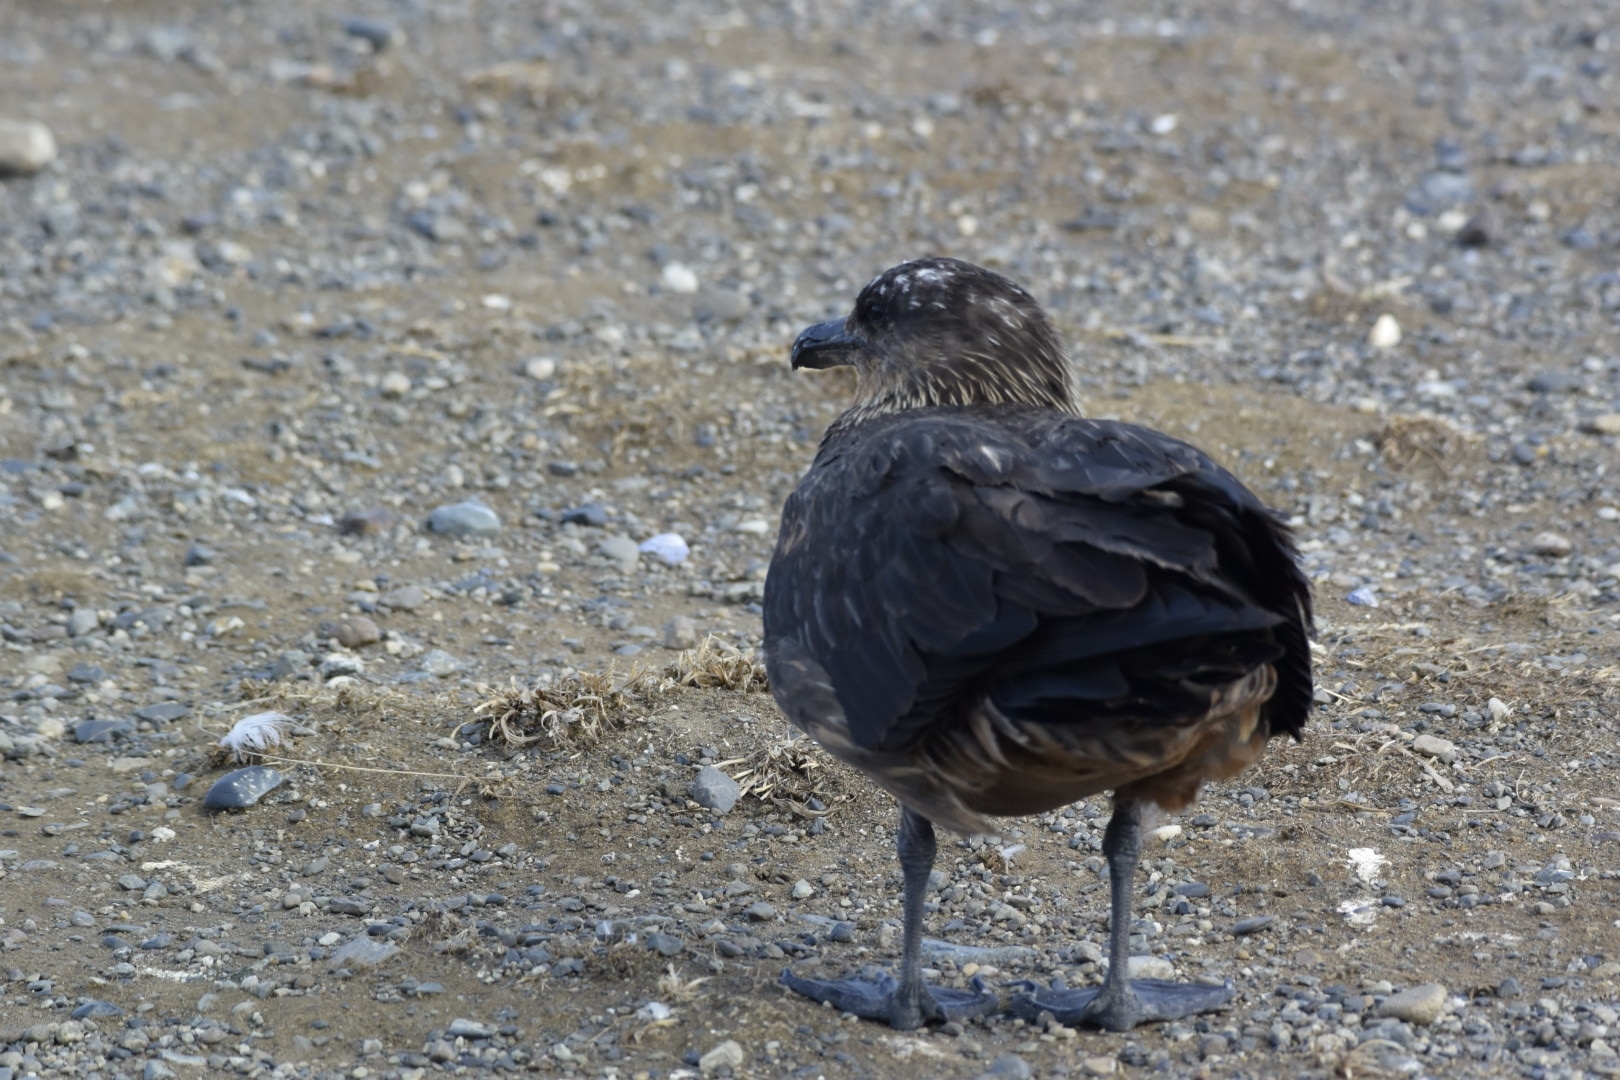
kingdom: Animalia
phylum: Chordata
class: Aves
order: Charadriiformes
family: Stercorariidae
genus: Stercorarius
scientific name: Stercorarius chilensis
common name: Chilean skua
